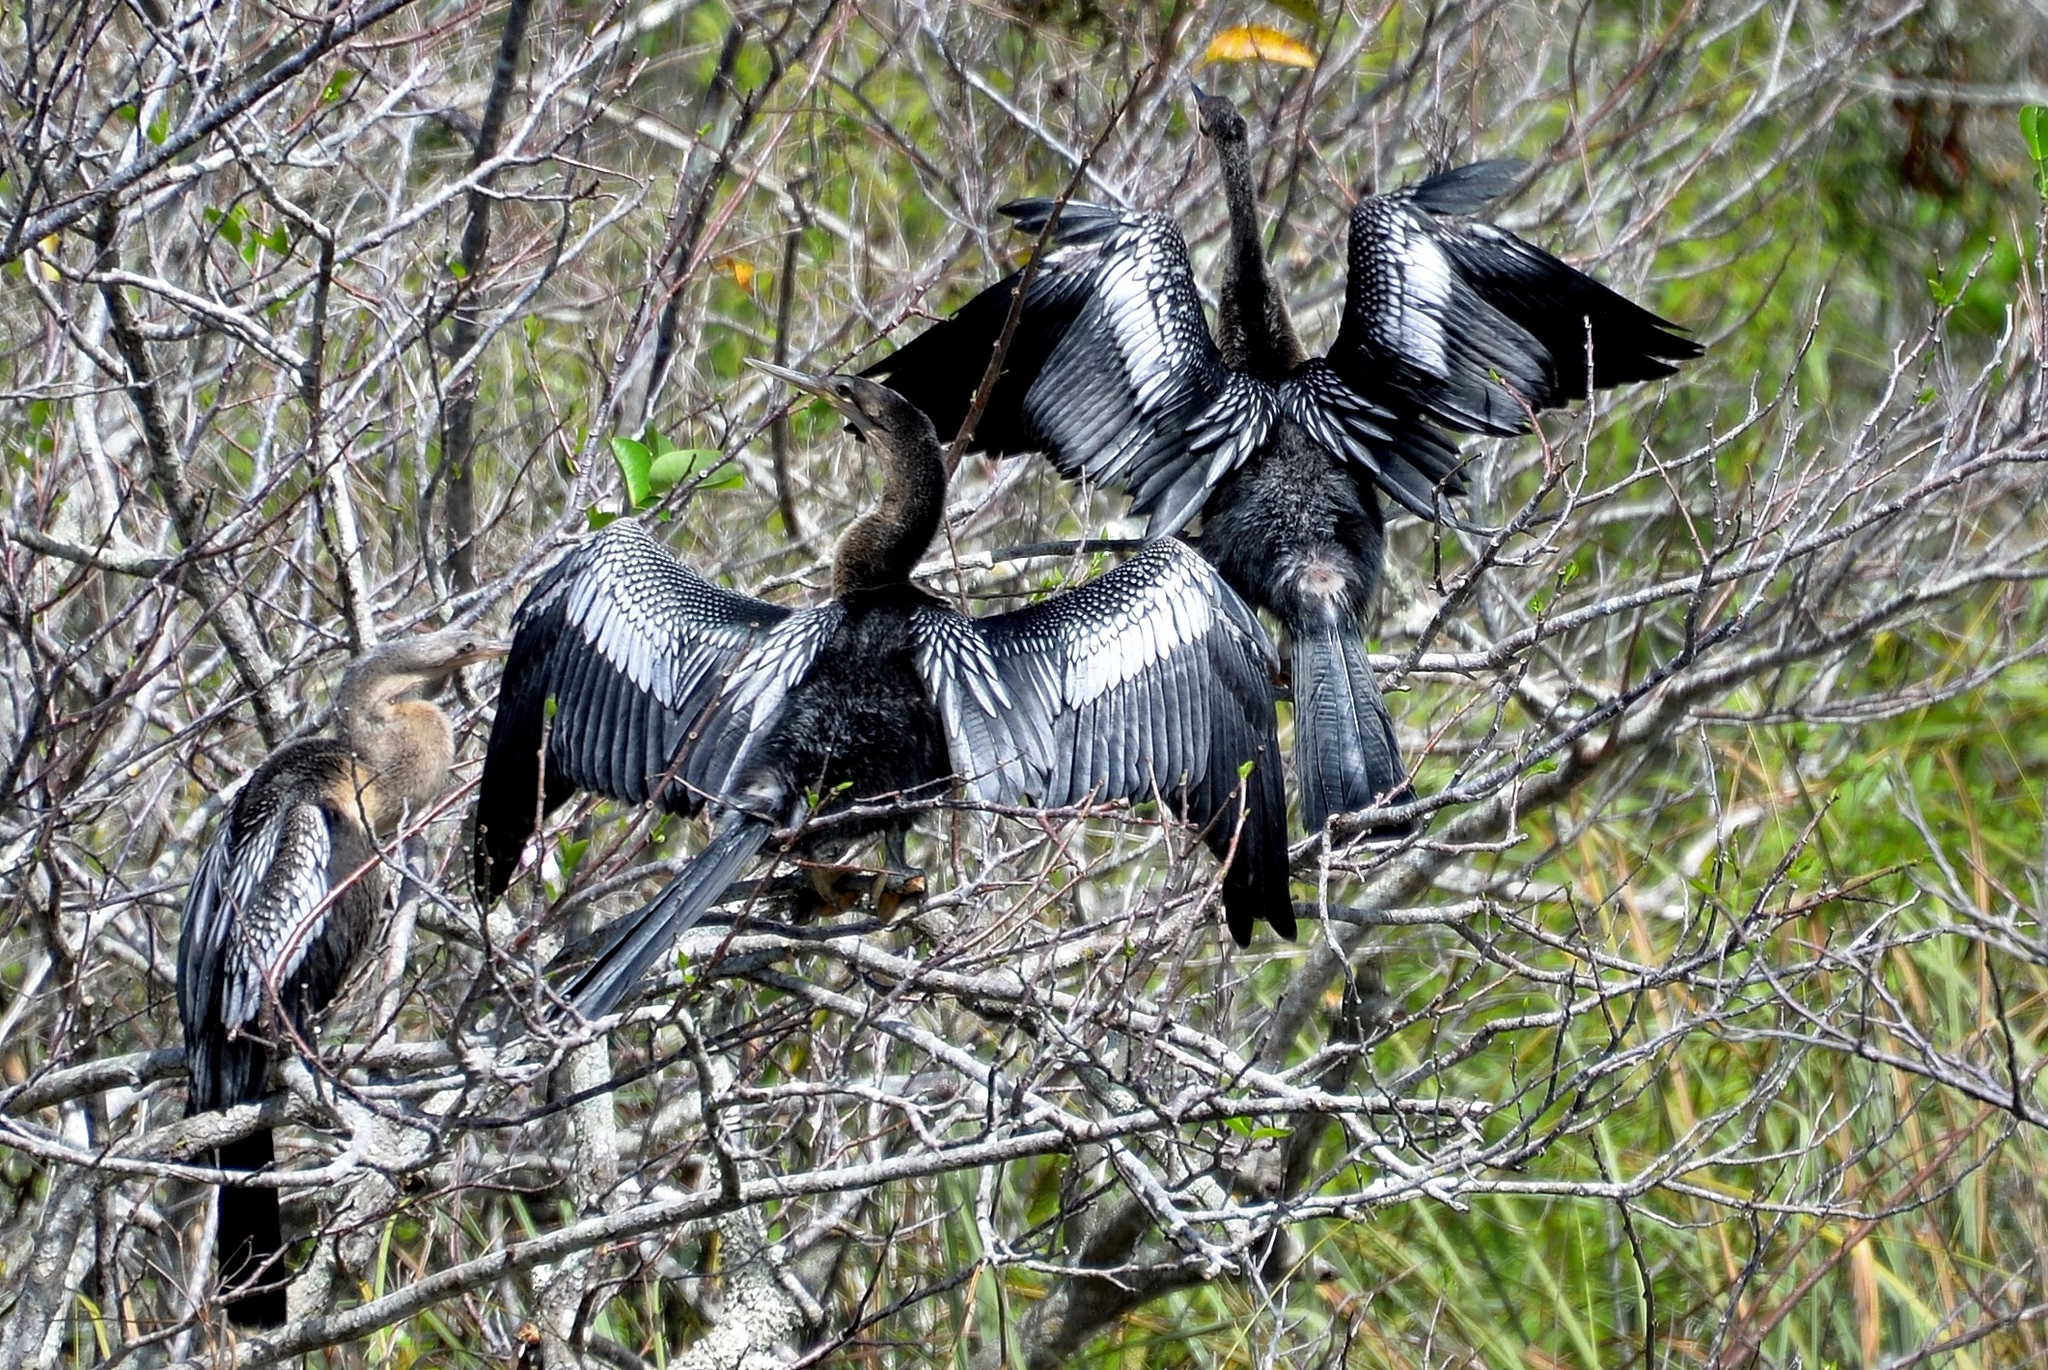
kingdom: Animalia
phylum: Chordata
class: Aves
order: Suliformes
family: Anhingidae
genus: Anhinga
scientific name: Anhinga anhinga
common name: Anhinga
